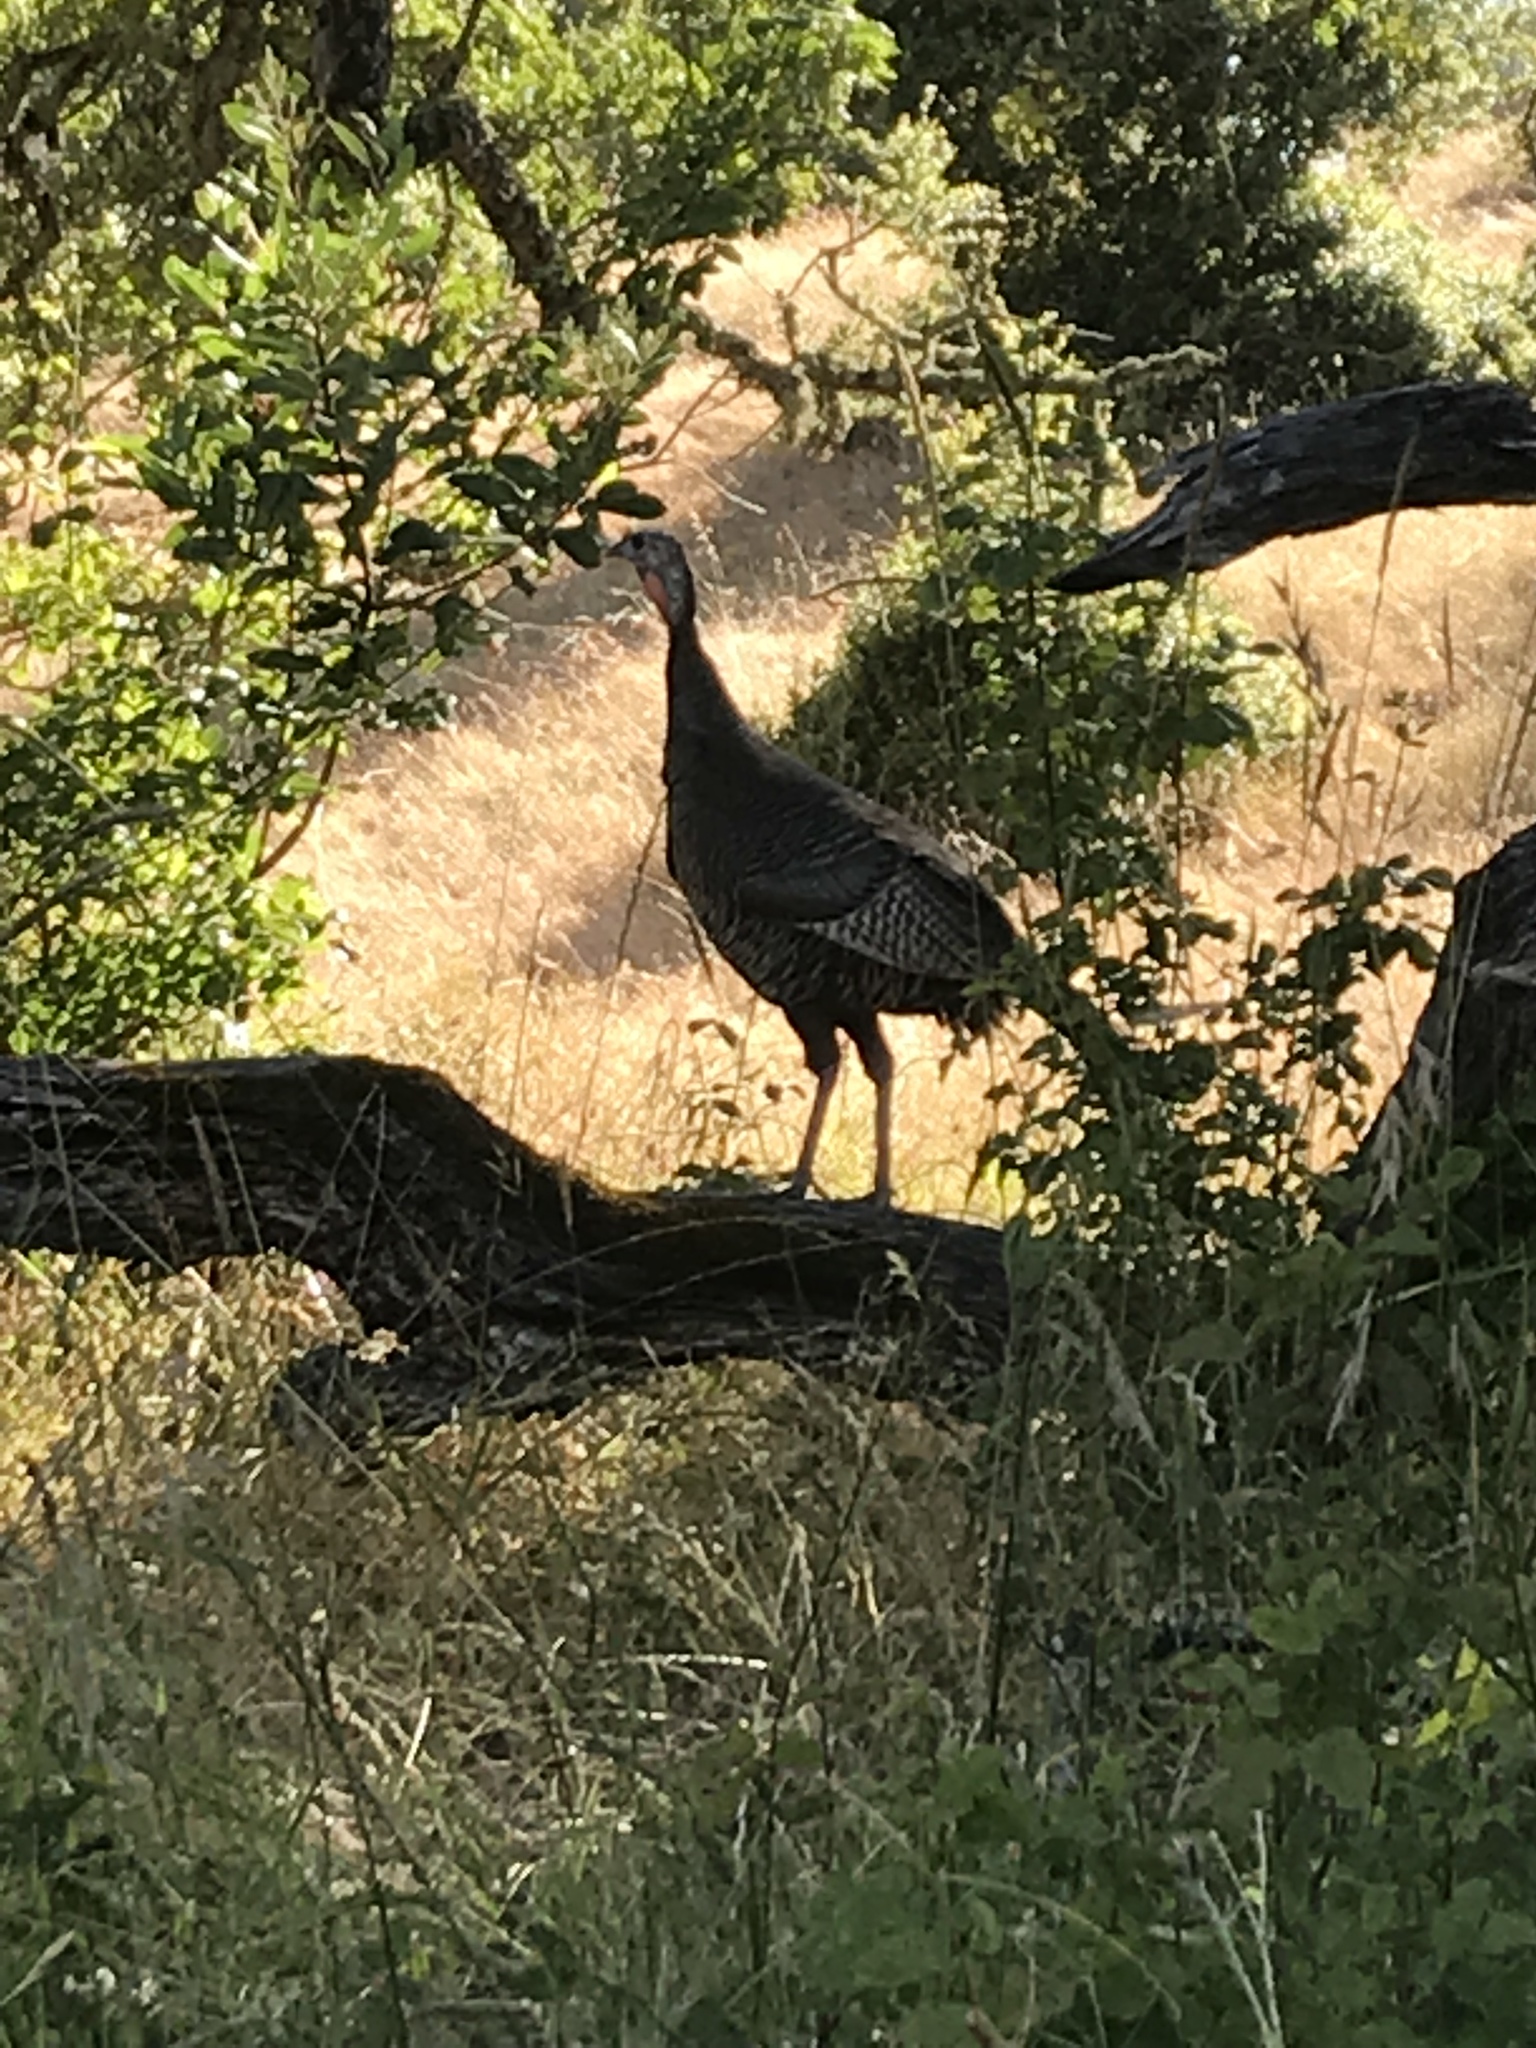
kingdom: Animalia
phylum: Chordata
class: Aves
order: Galliformes
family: Phasianidae
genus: Meleagris
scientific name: Meleagris gallopavo
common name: Wild turkey
